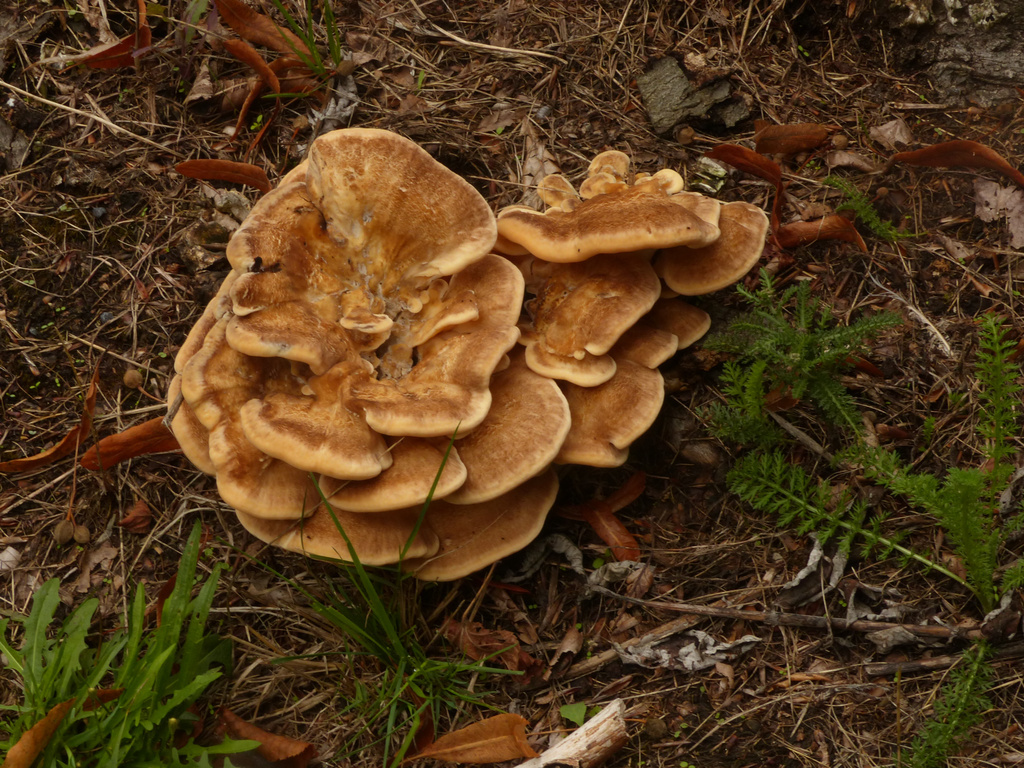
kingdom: Fungi
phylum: Basidiomycota
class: Agaricomycetes
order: Polyporales
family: Meripilaceae
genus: Meripilus
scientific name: Meripilus giganteus
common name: Giant polypore
